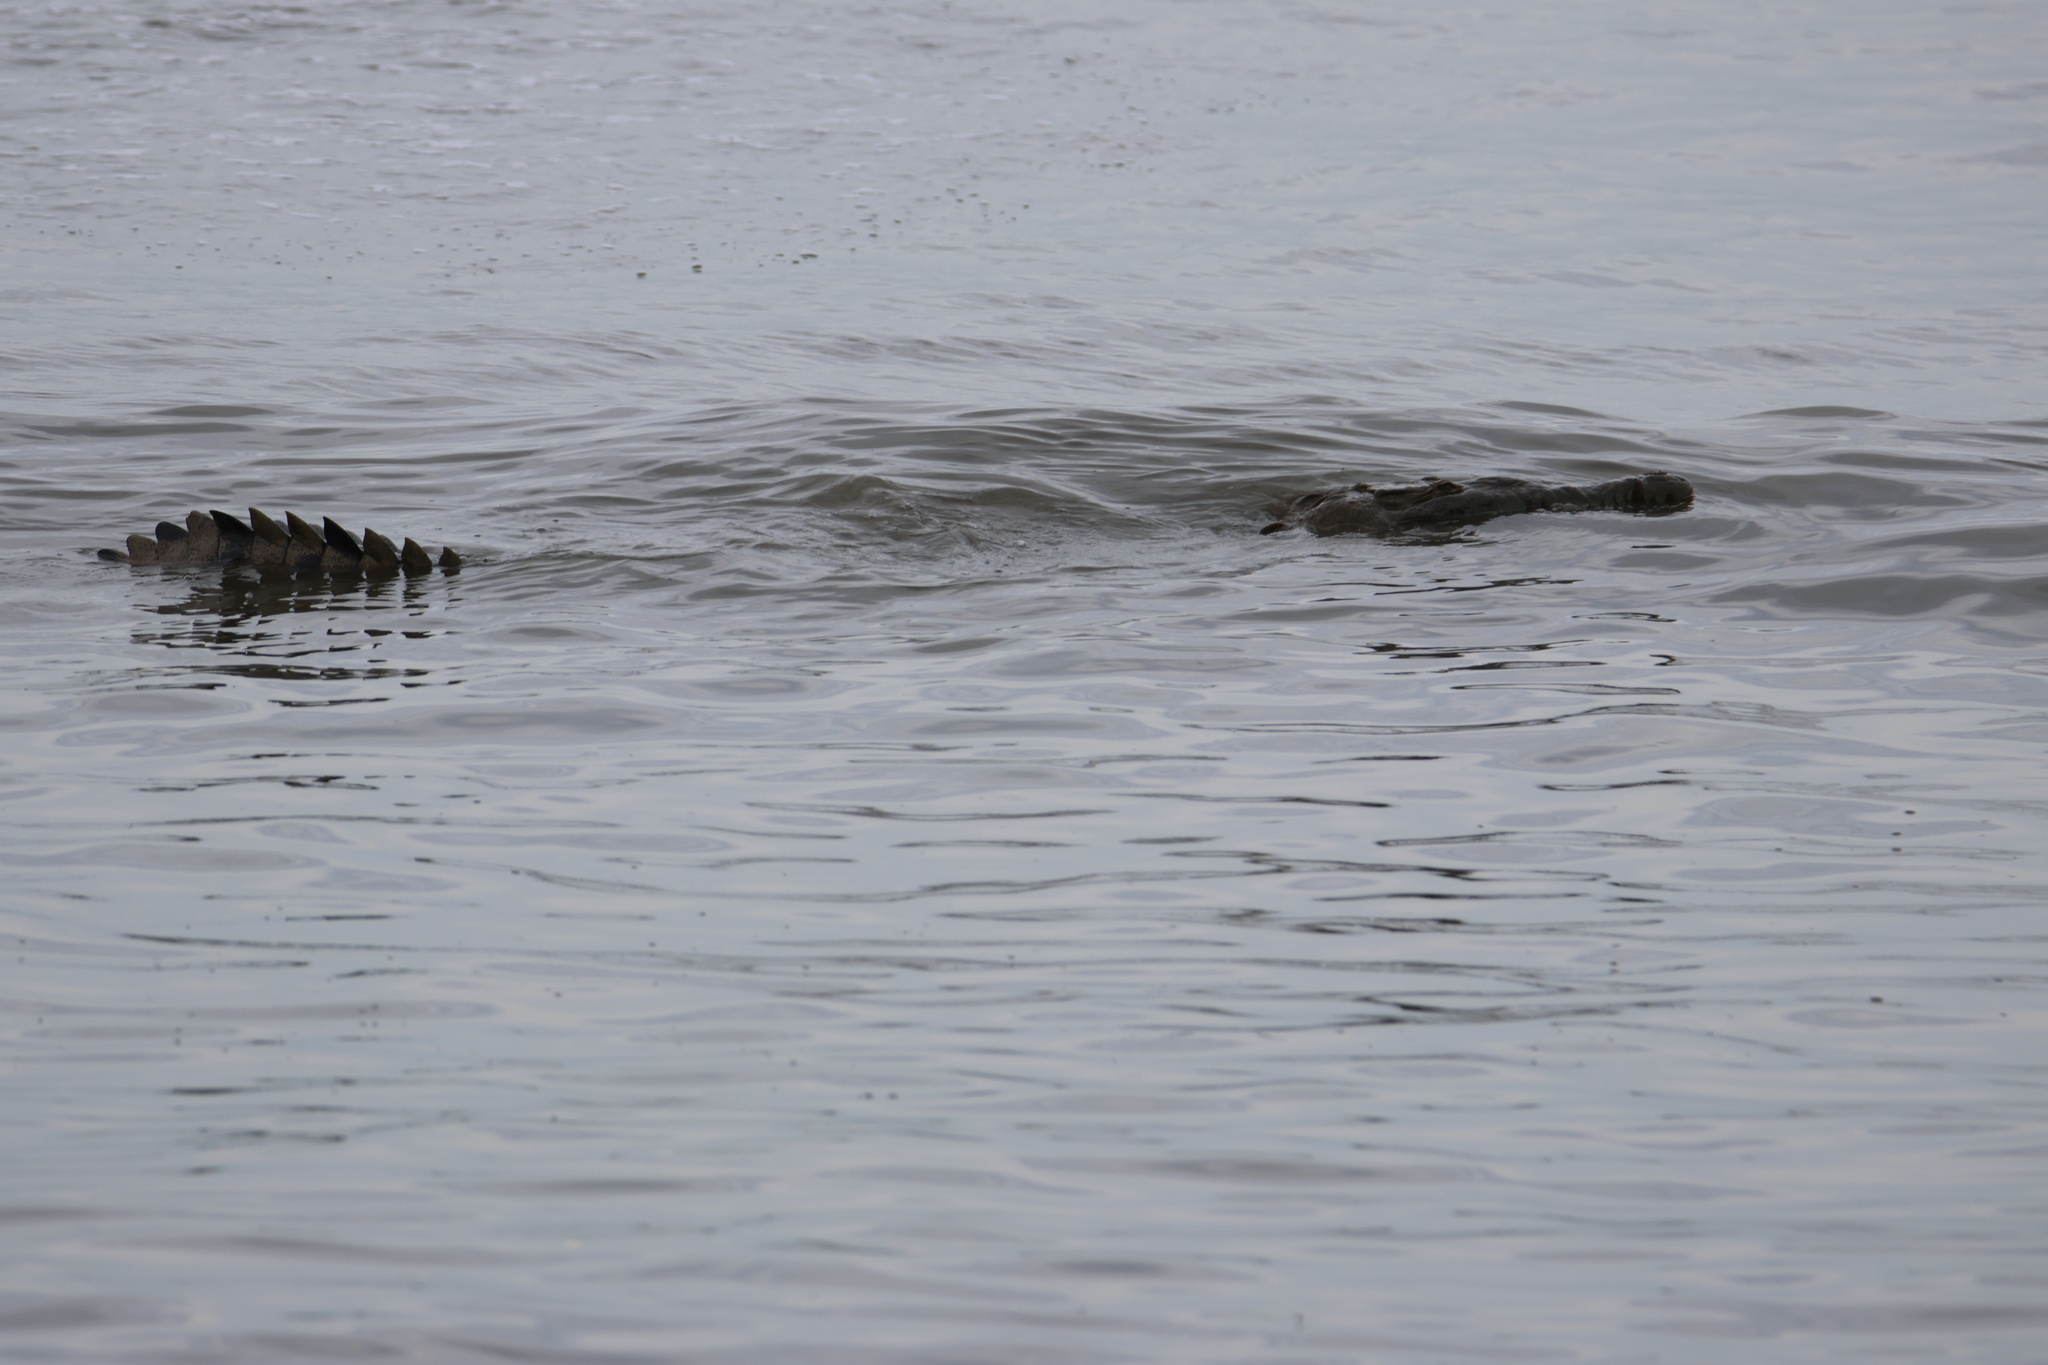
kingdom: Animalia
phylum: Chordata
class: Crocodylia
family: Crocodylidae
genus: Crocodylus
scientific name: Crocodylus acutus
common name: American crocodile
